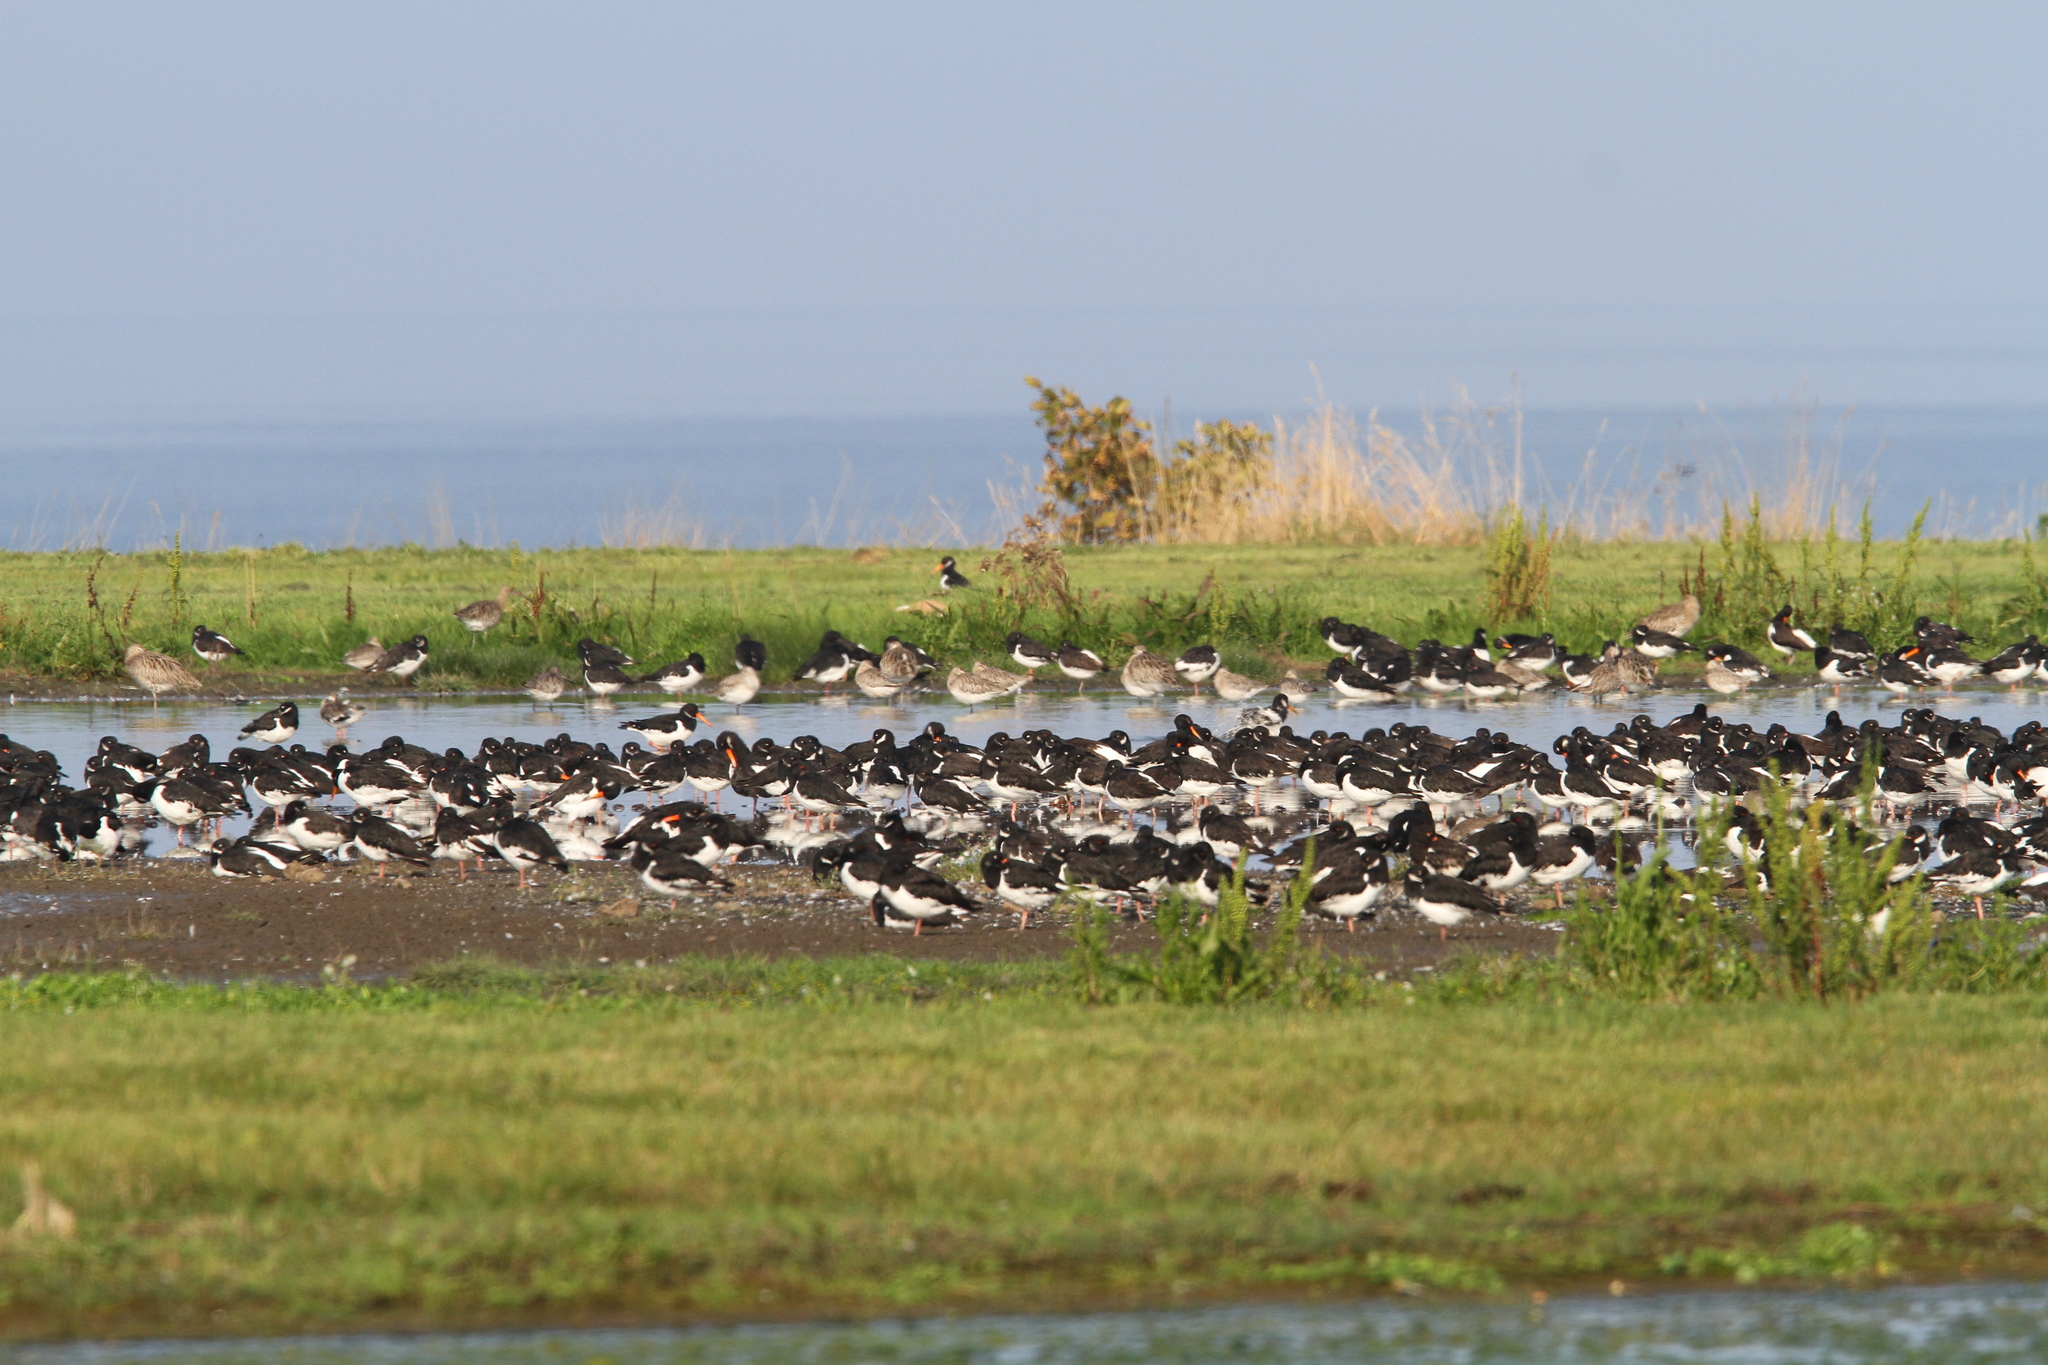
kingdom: Animalia
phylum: Chordata
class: Aves
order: Charadriiformes
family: Haematopodidae
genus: Haematopus
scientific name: Haematopus ostralegus
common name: Eurasian oystercatcher
